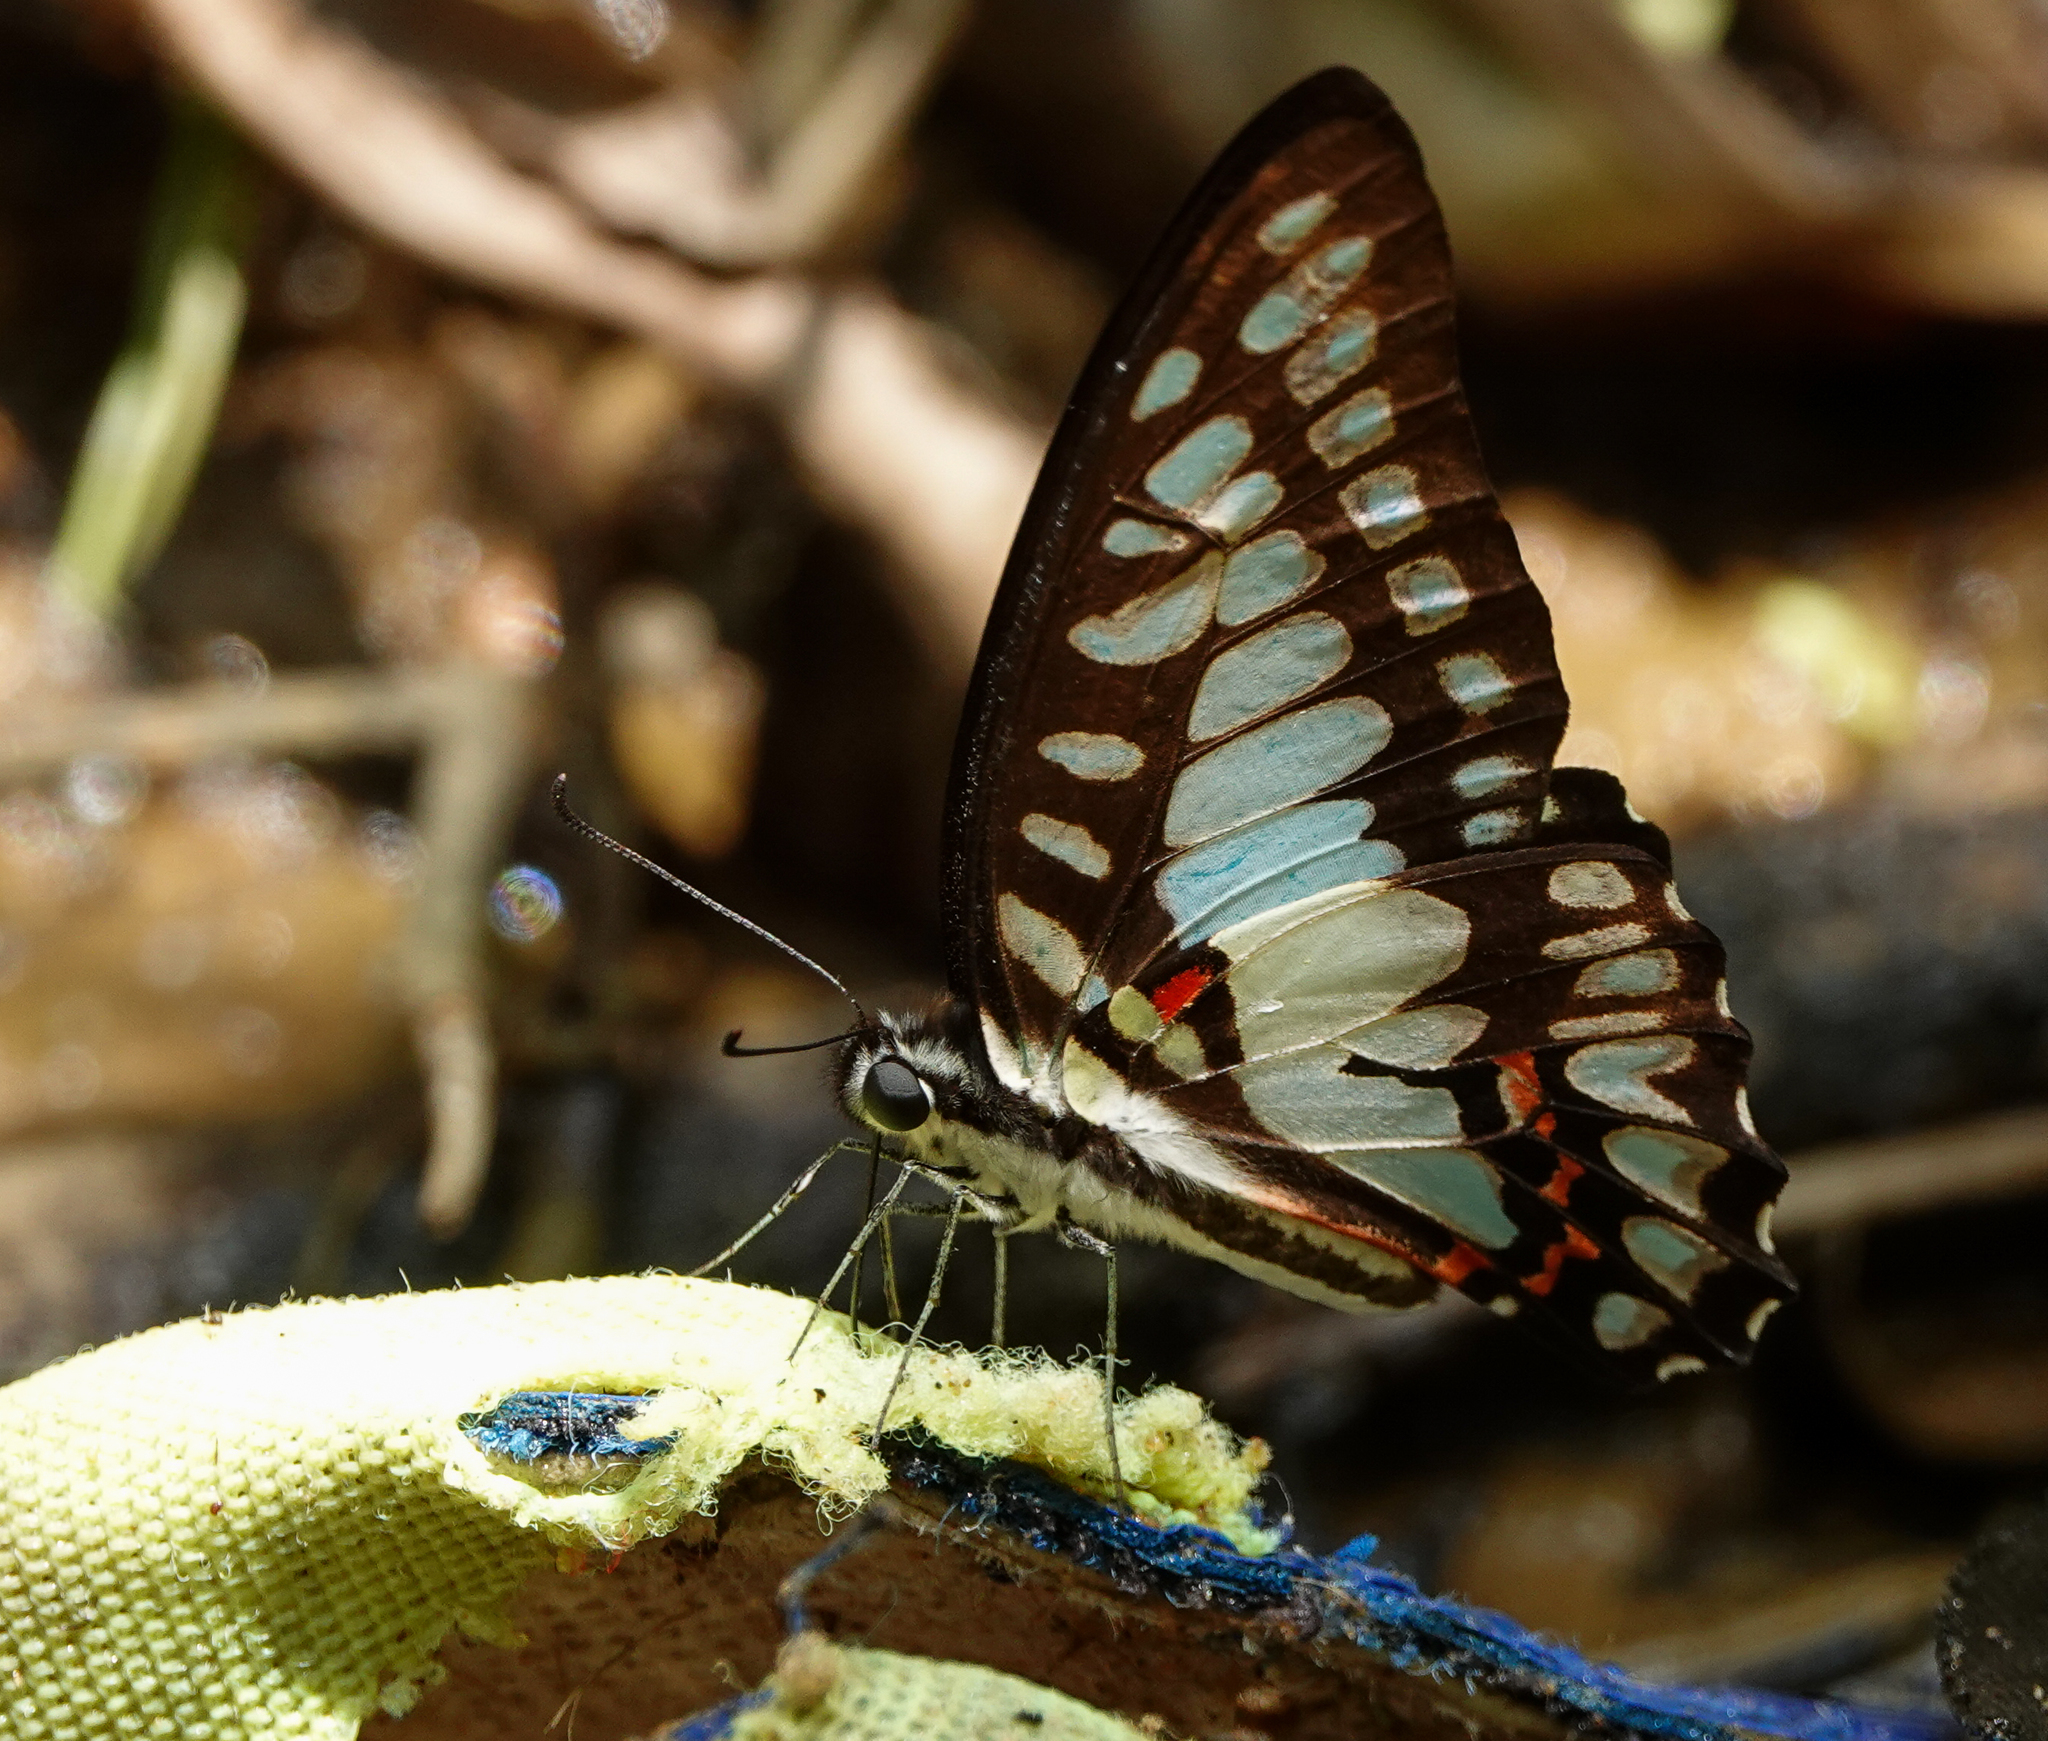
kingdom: Animalia
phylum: Arthropoda
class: Insecta
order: Lepidoptera
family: Papilionidae
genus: Graphium
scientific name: Graphium doson
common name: Common jay
